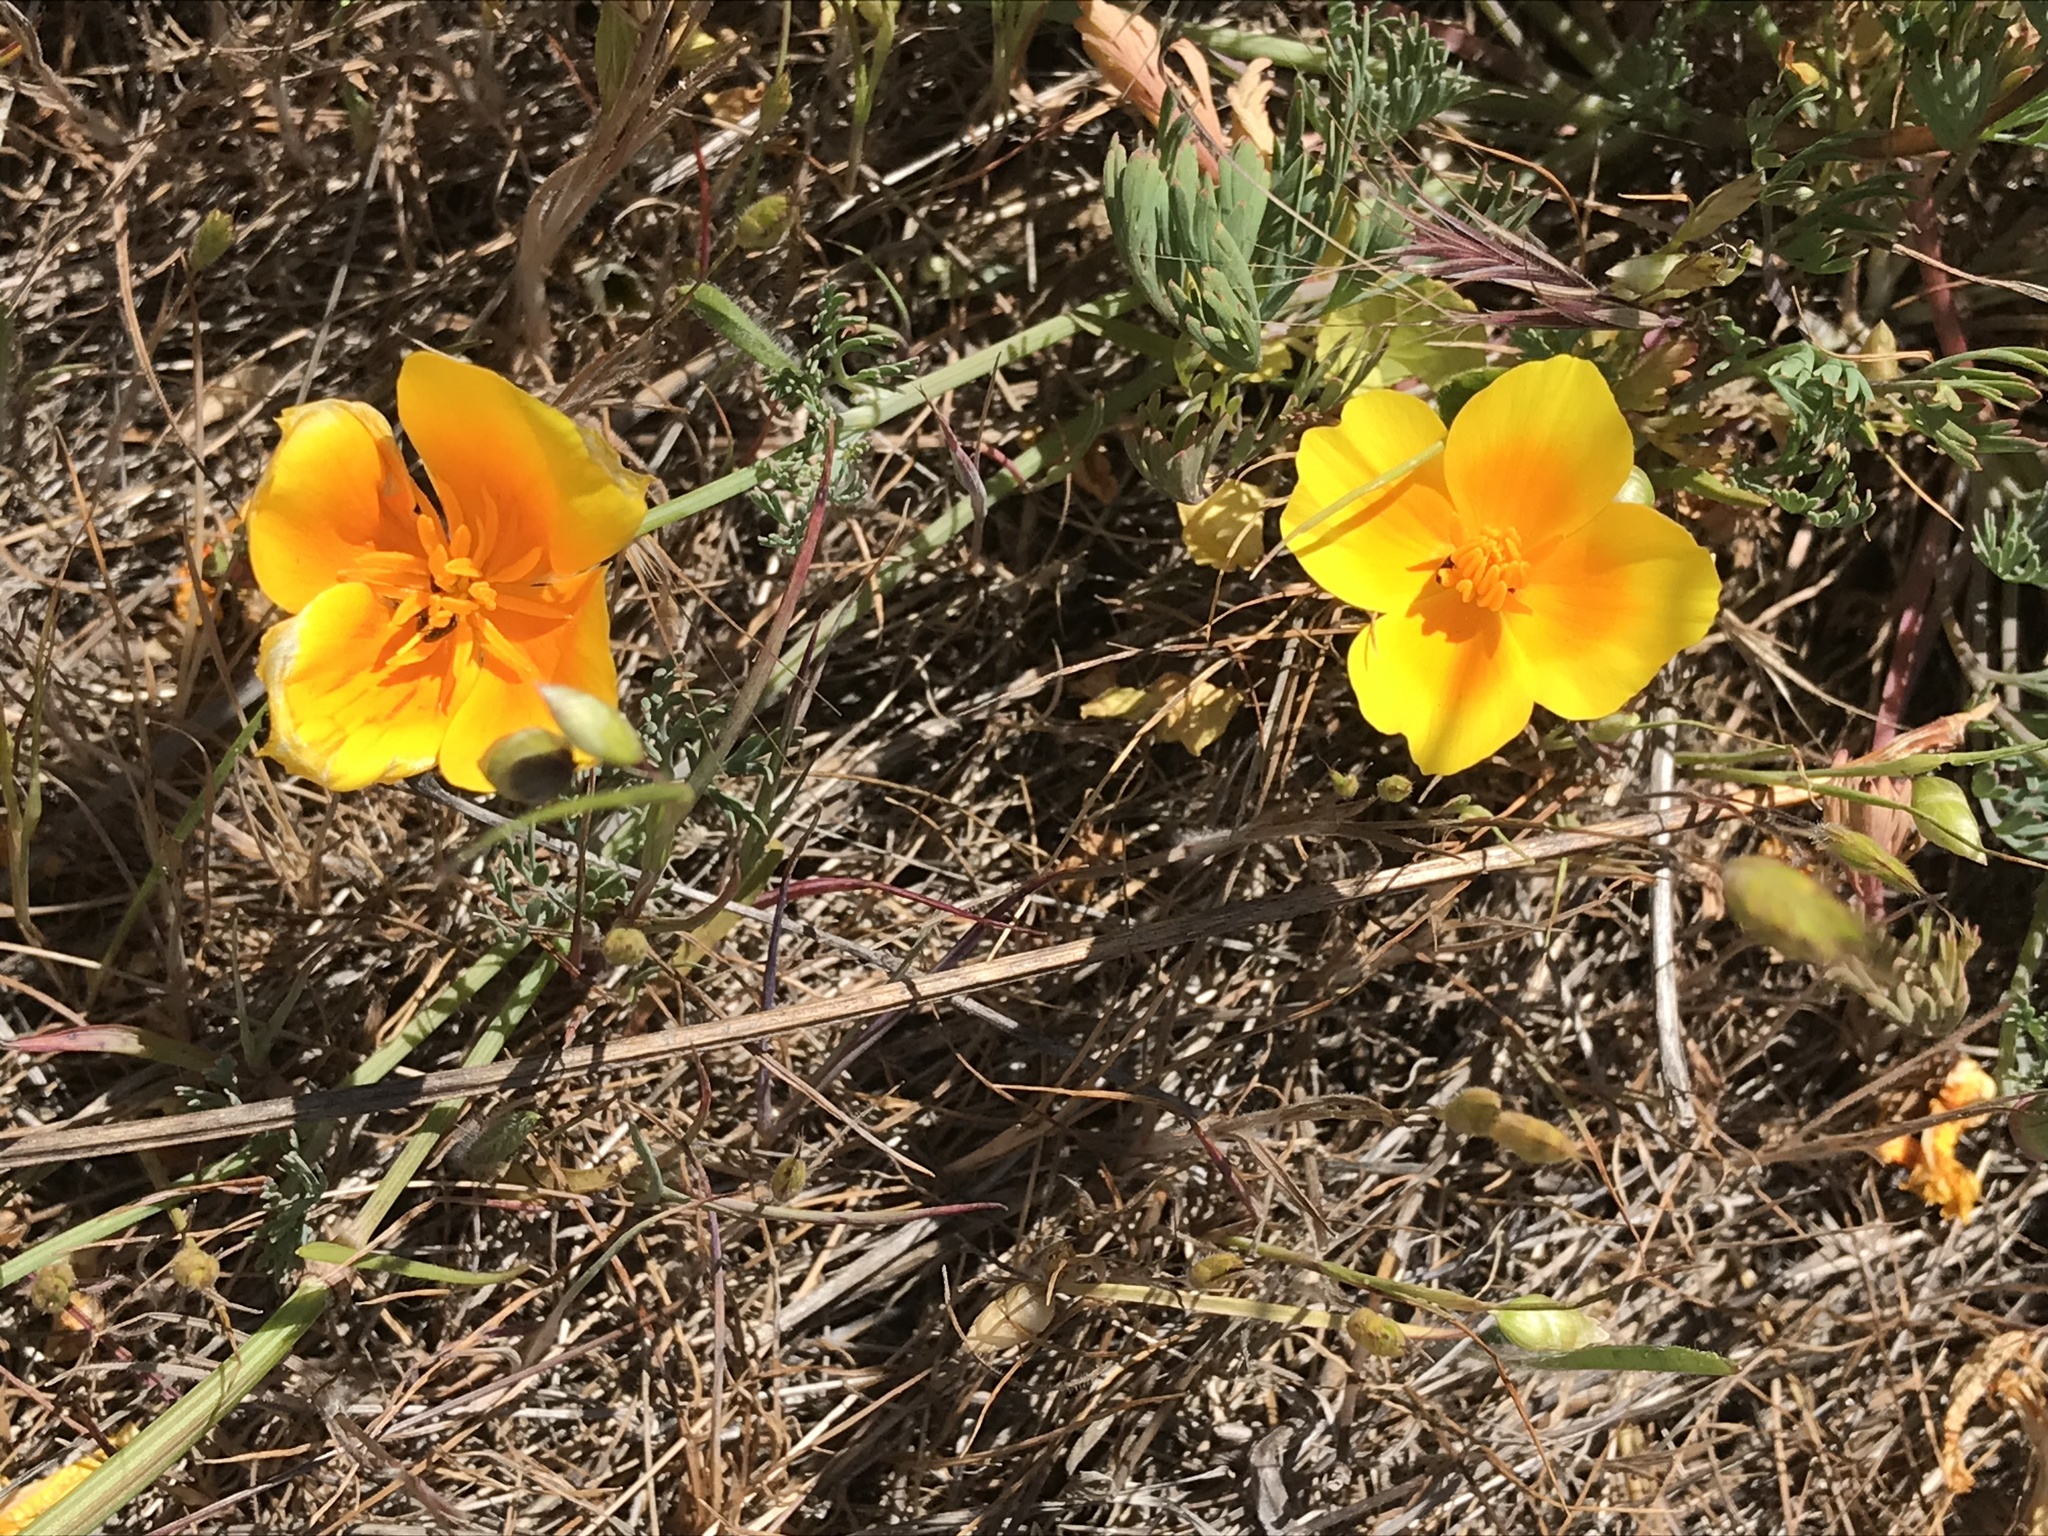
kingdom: Plantae
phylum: Tracheophyta
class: Magnoliopsida
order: Ranunculales
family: Papaveraceae
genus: Eschscholzia
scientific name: Eschscholzia californica
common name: California poppy
